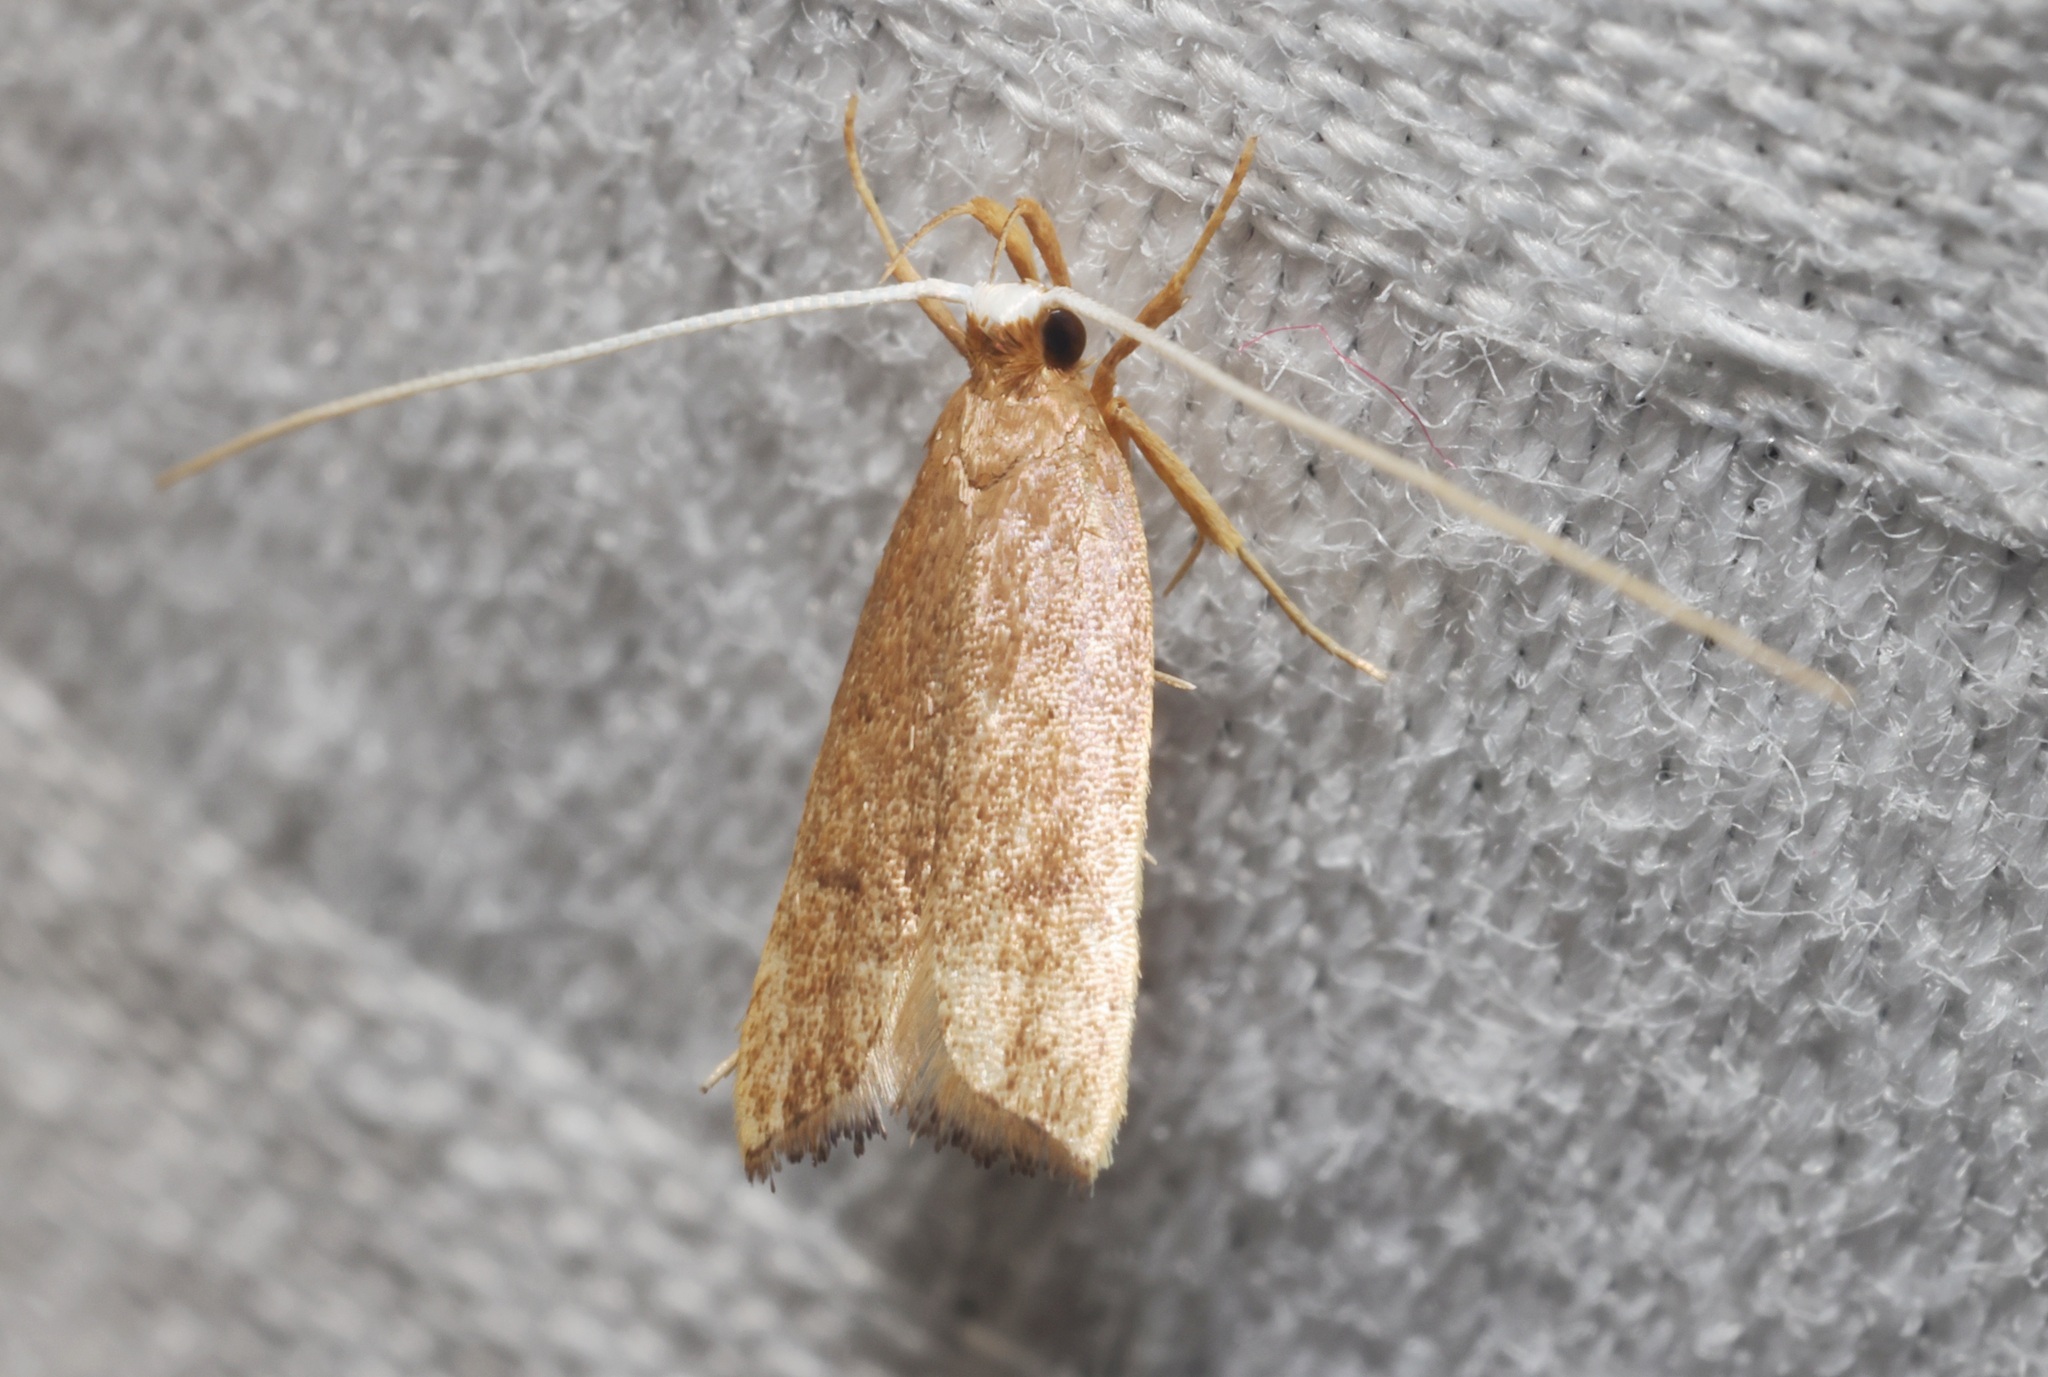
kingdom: Animalia
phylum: Arthropoda
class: Insecta
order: Lepidoptera
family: Lecithoceridae
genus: Lecitholaxa
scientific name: Lecitholaxa thiodora
